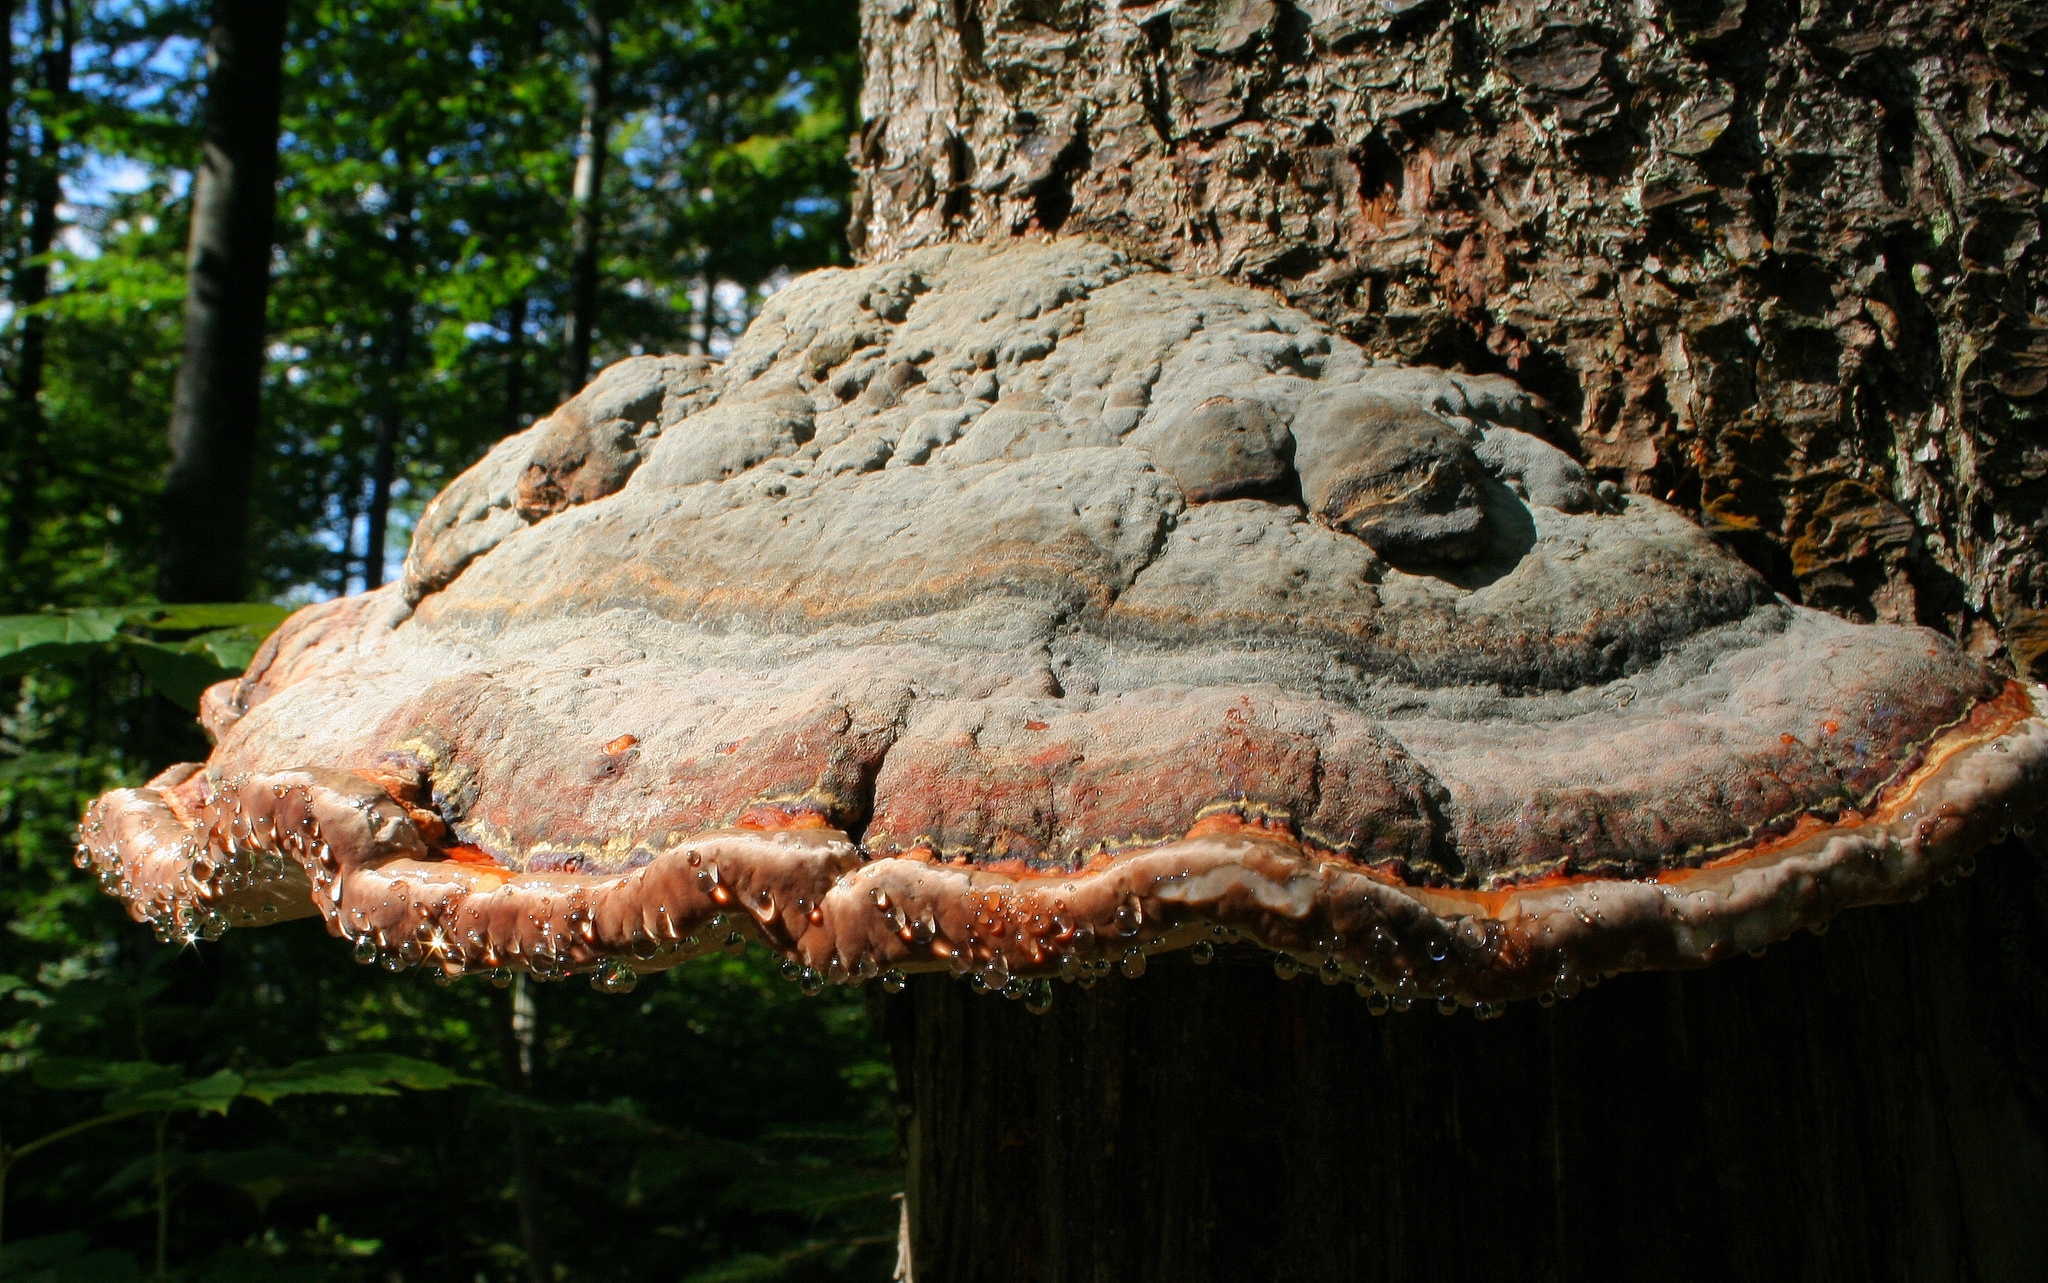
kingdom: Fungi
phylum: Basidiomycota
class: Agaricomycetes
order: Polyporales
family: Fomitopsidaceae
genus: Fomitopsis
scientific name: Fomitopsis pinicola
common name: Red-belted bracket
